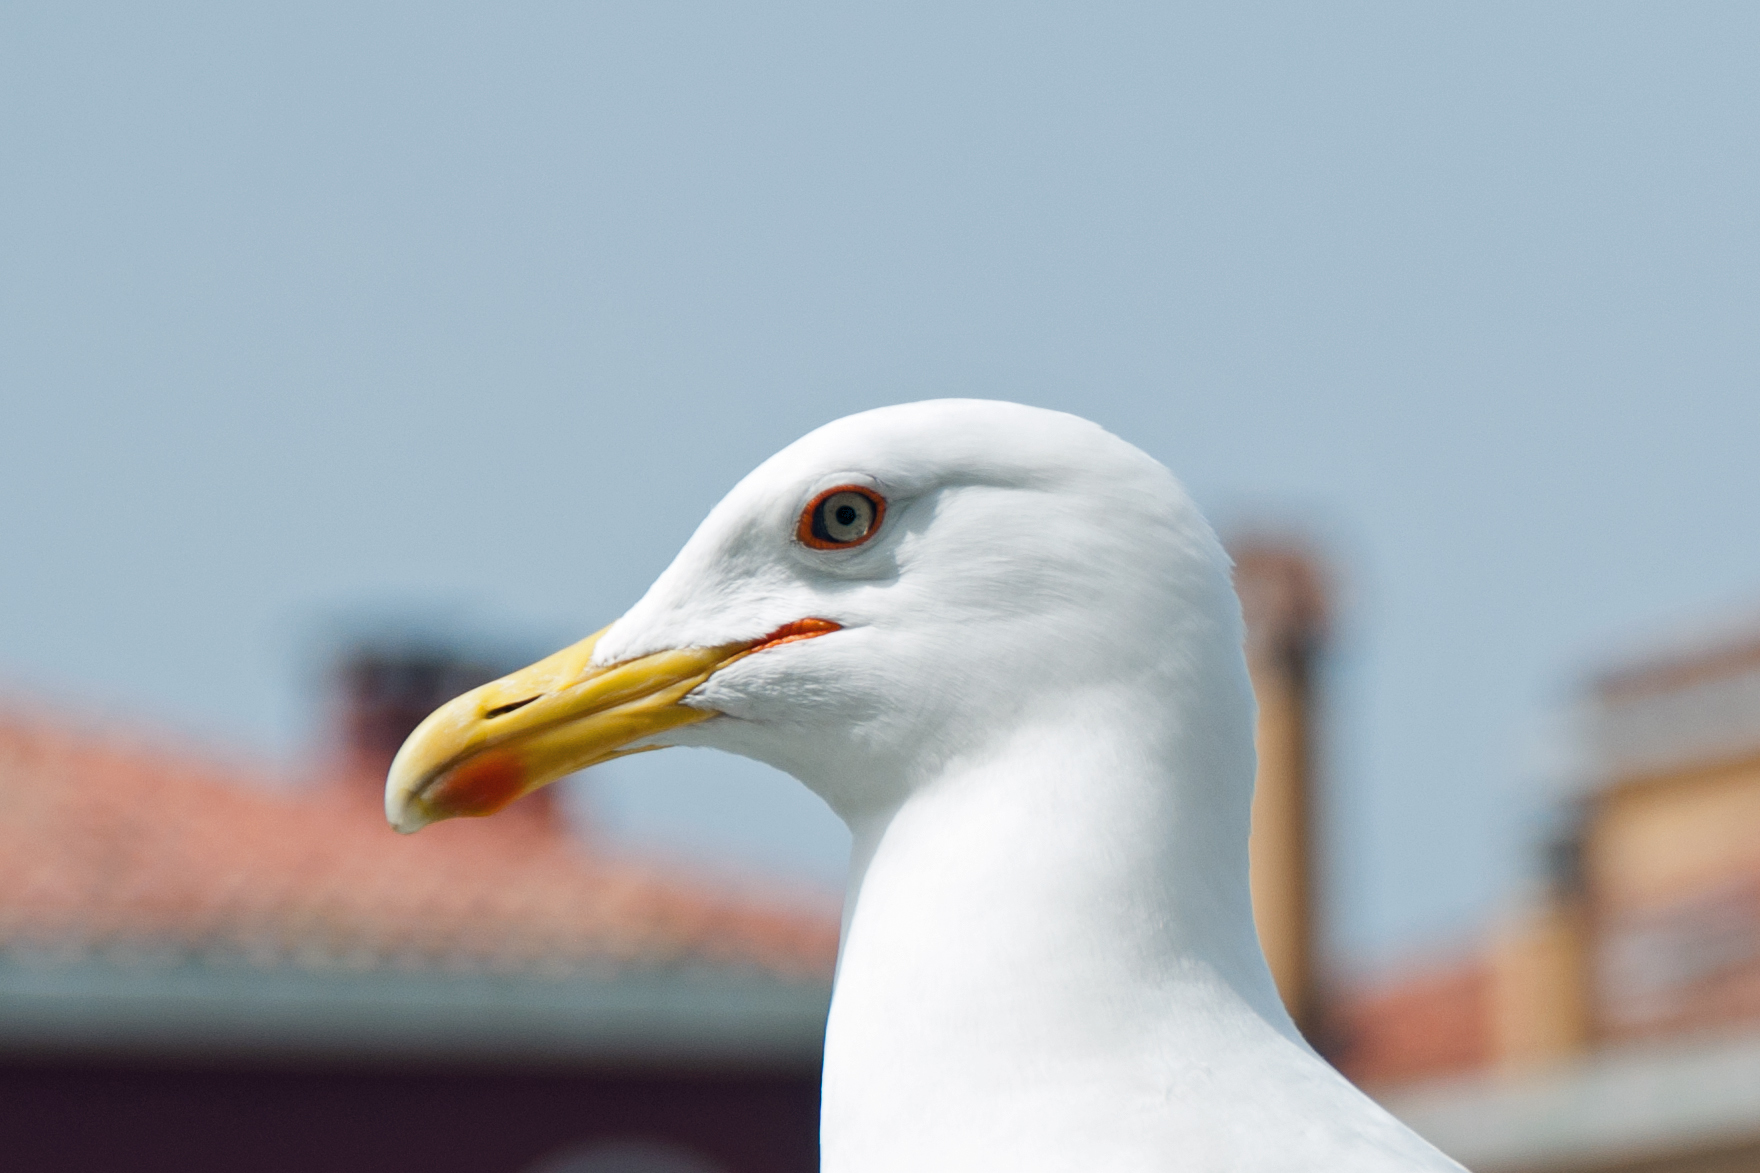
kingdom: Animalia
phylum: Chordata
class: Aves
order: Charadriiformes
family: Laridae
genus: Larus
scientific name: Larus michahellis
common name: Yellow-legged gull
